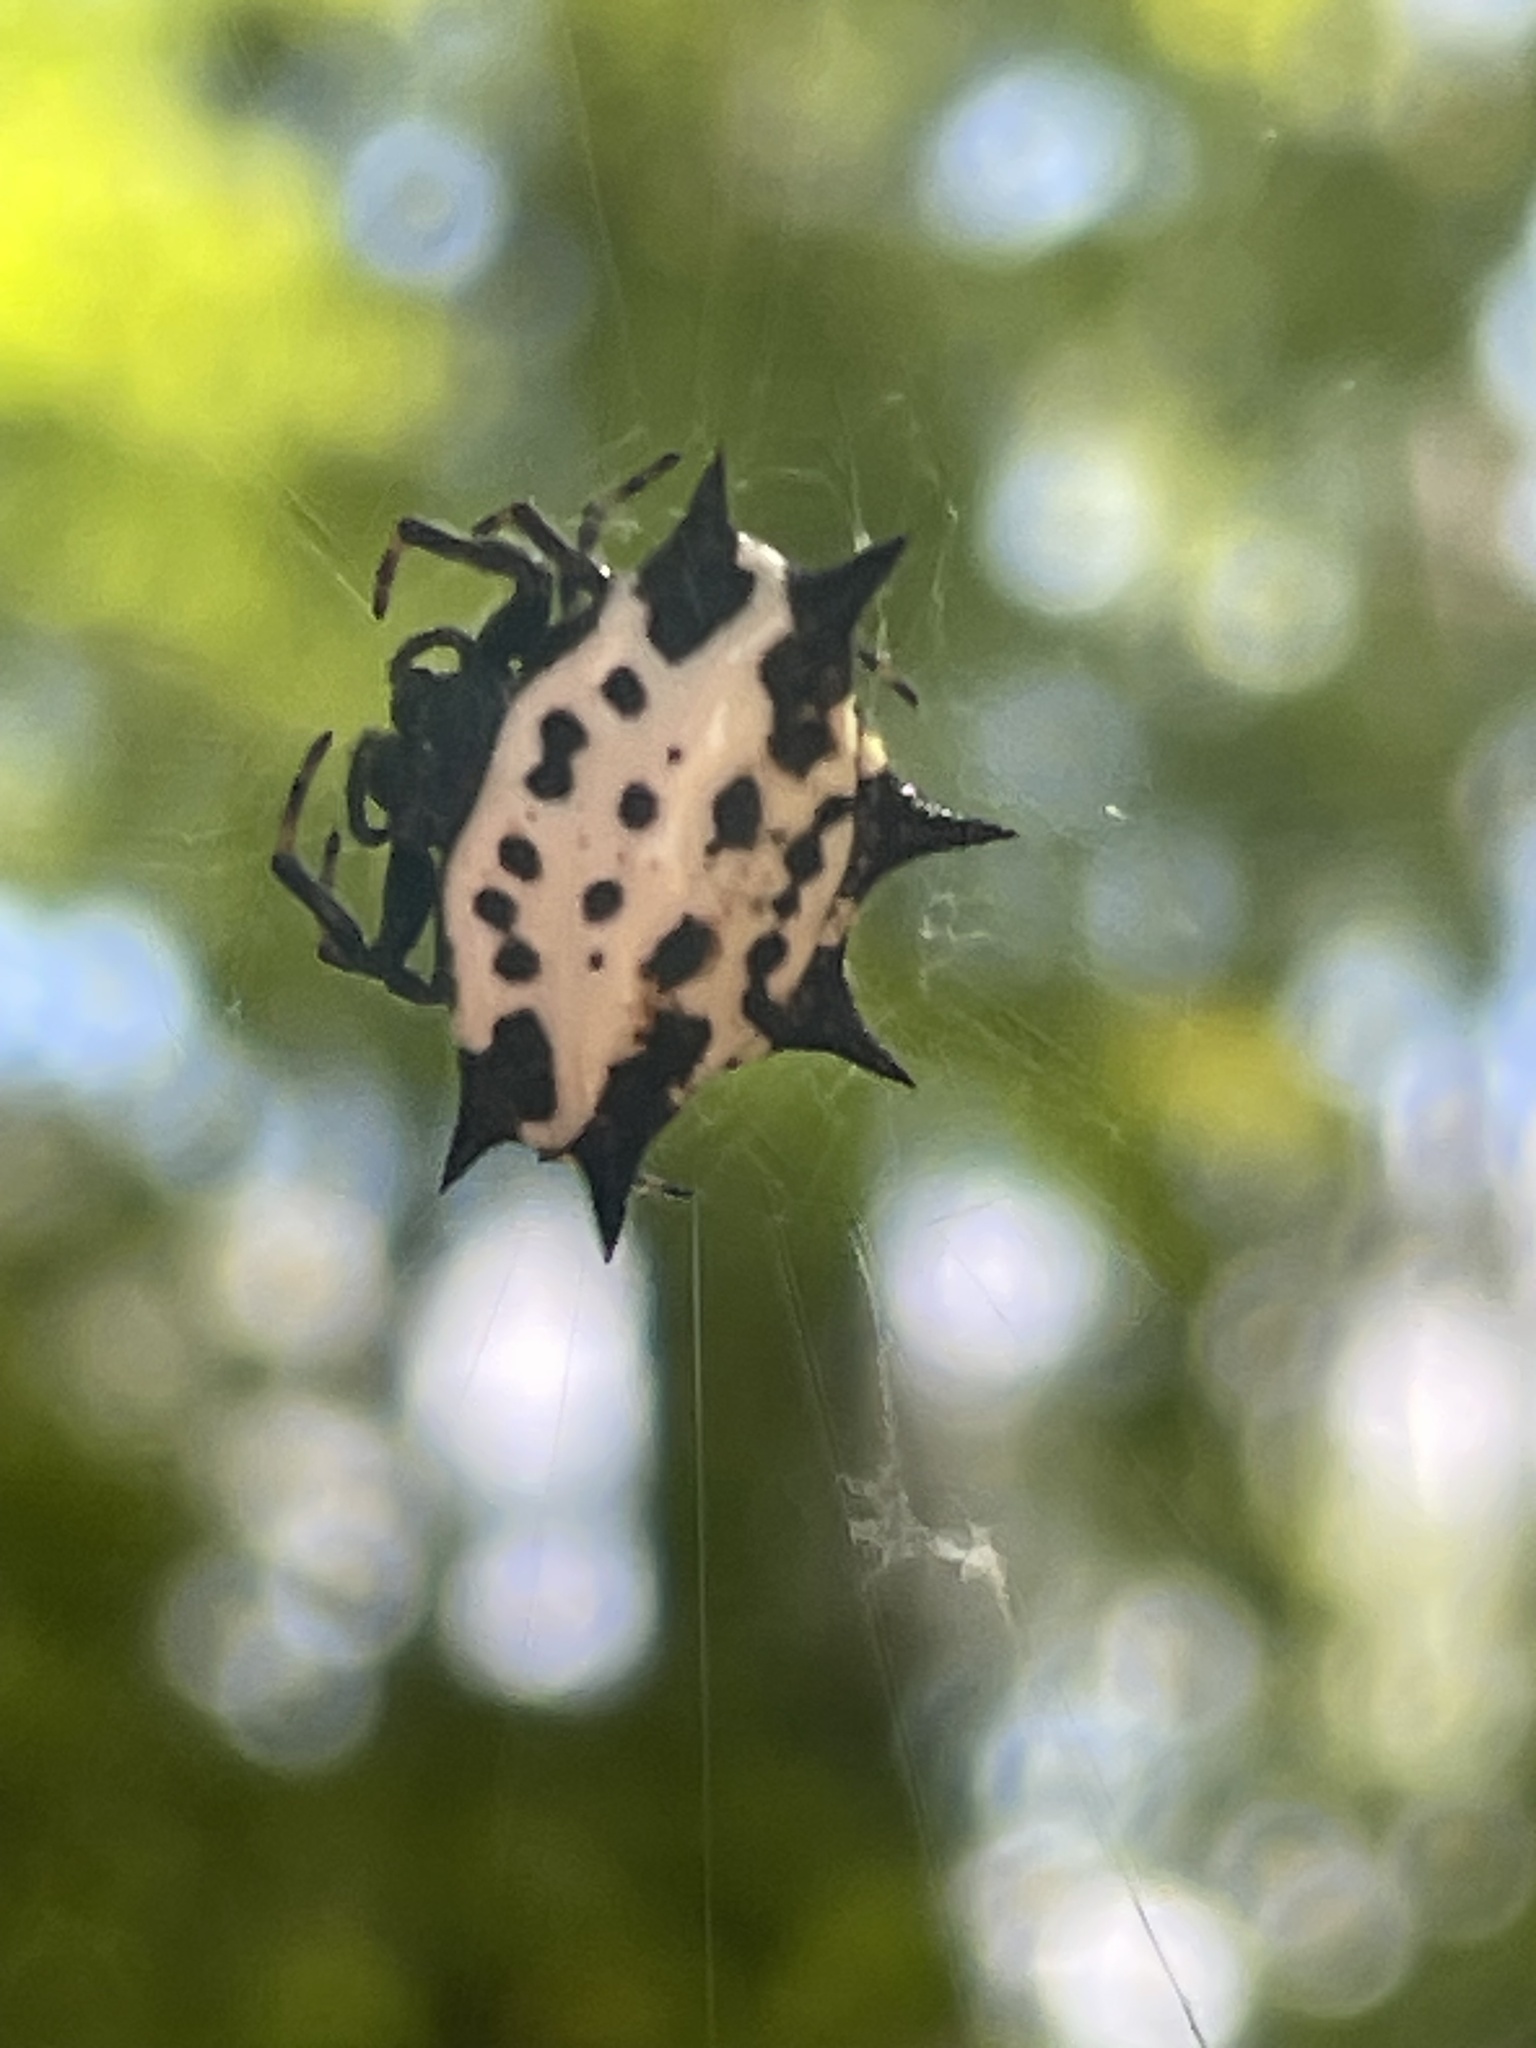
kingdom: Animalia
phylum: Arthropoda
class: Arachnida
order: Araneae
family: Araneidae
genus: Gasteracantha
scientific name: Gasteracantha cancriformis
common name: Orb weavers
